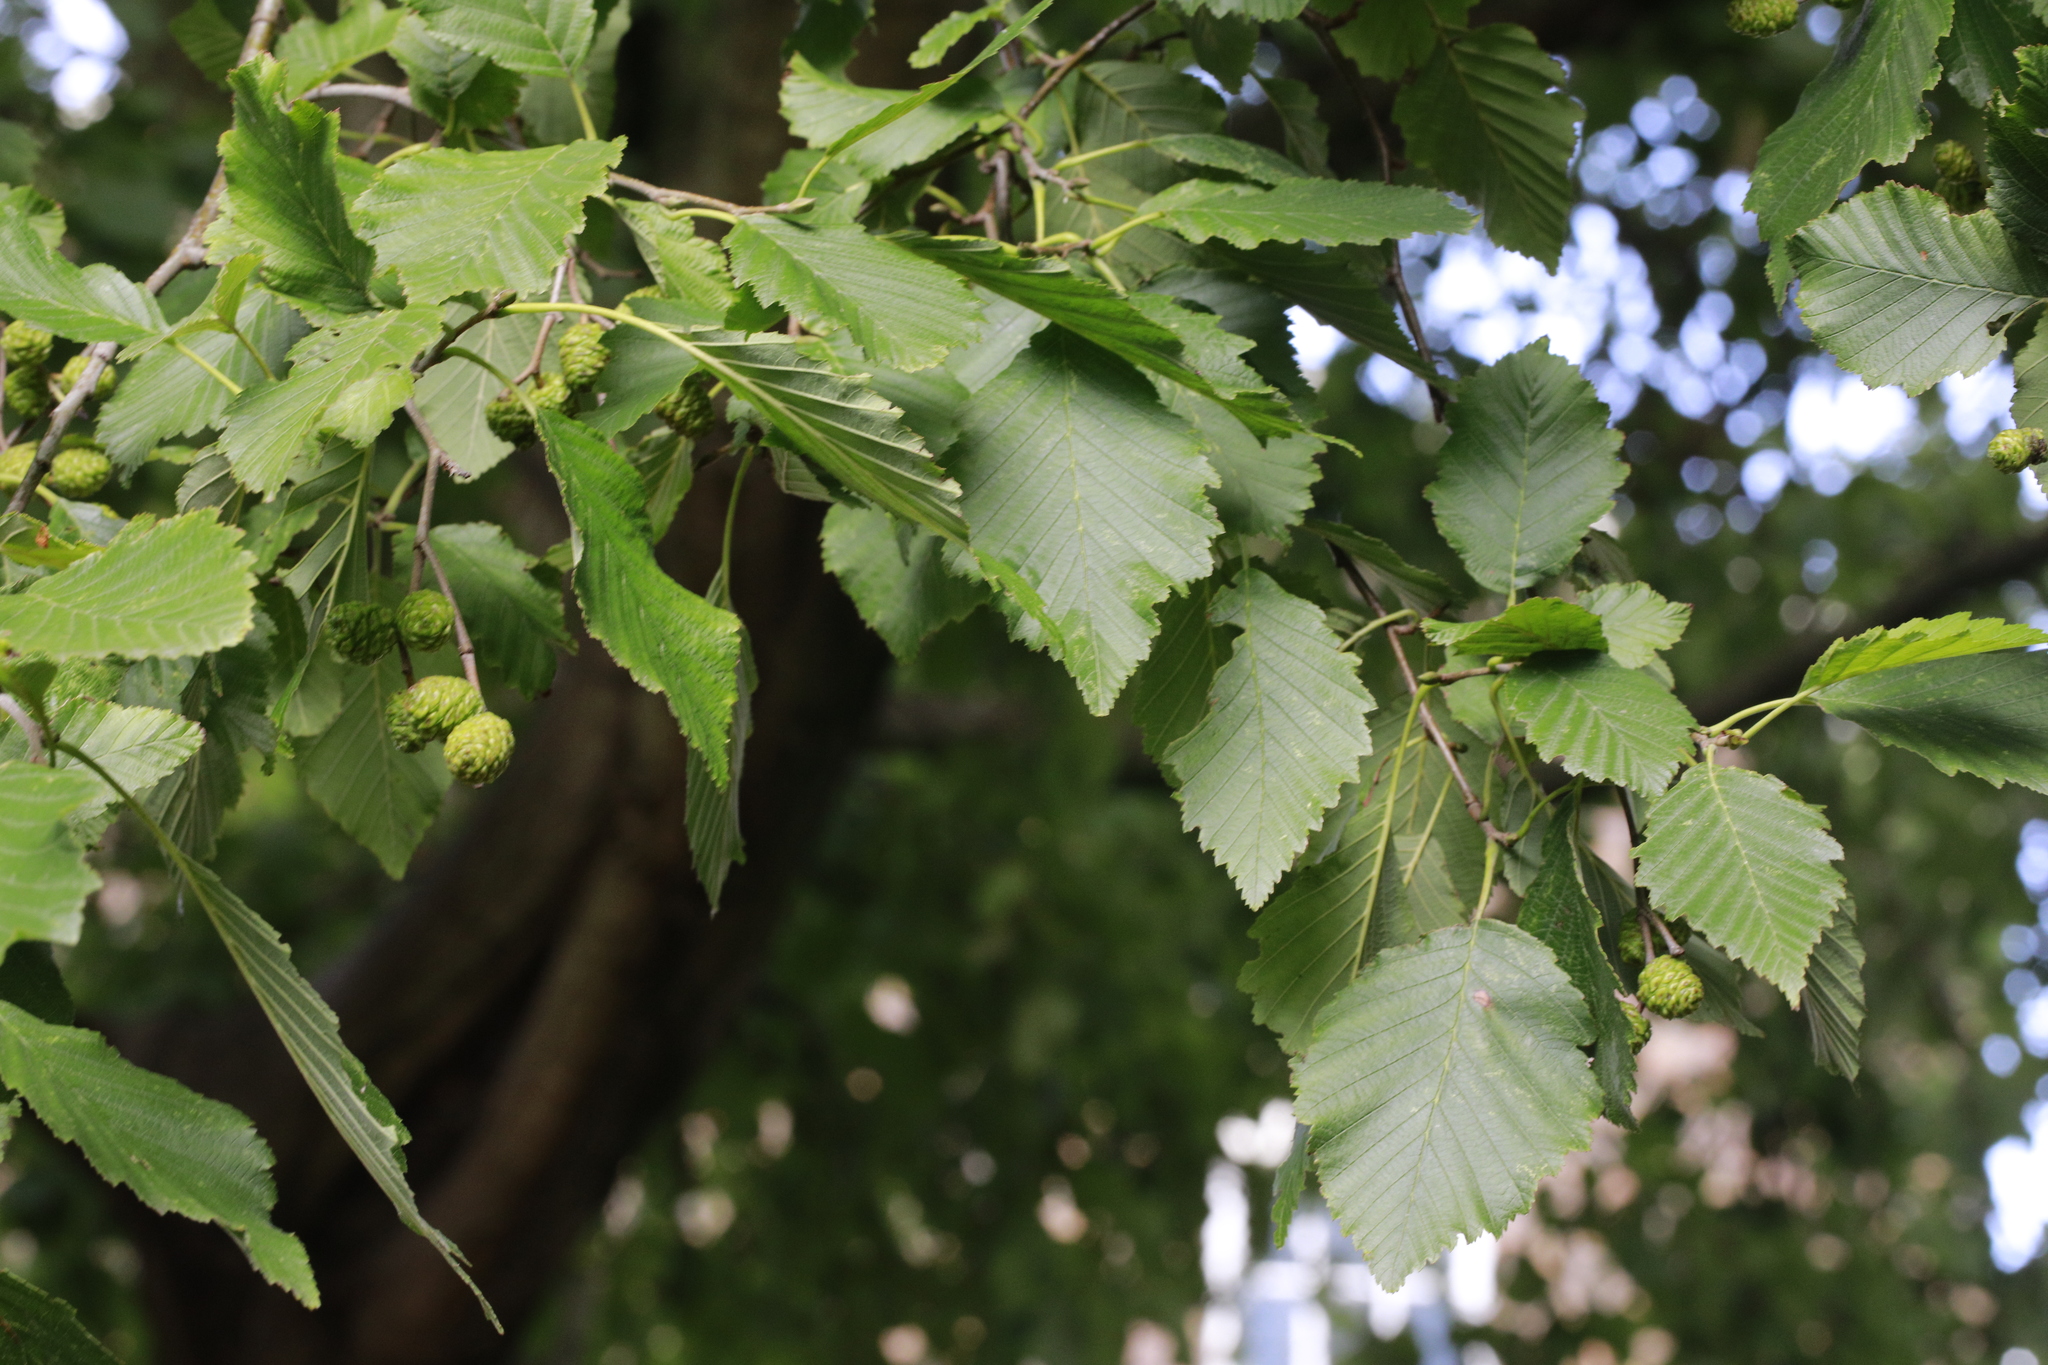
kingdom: Plantae
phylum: Tracheophyta
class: Magnoliopsida
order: Fagales
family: Betulaceae
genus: Alnus
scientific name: Alnus incana
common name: Grey alder
